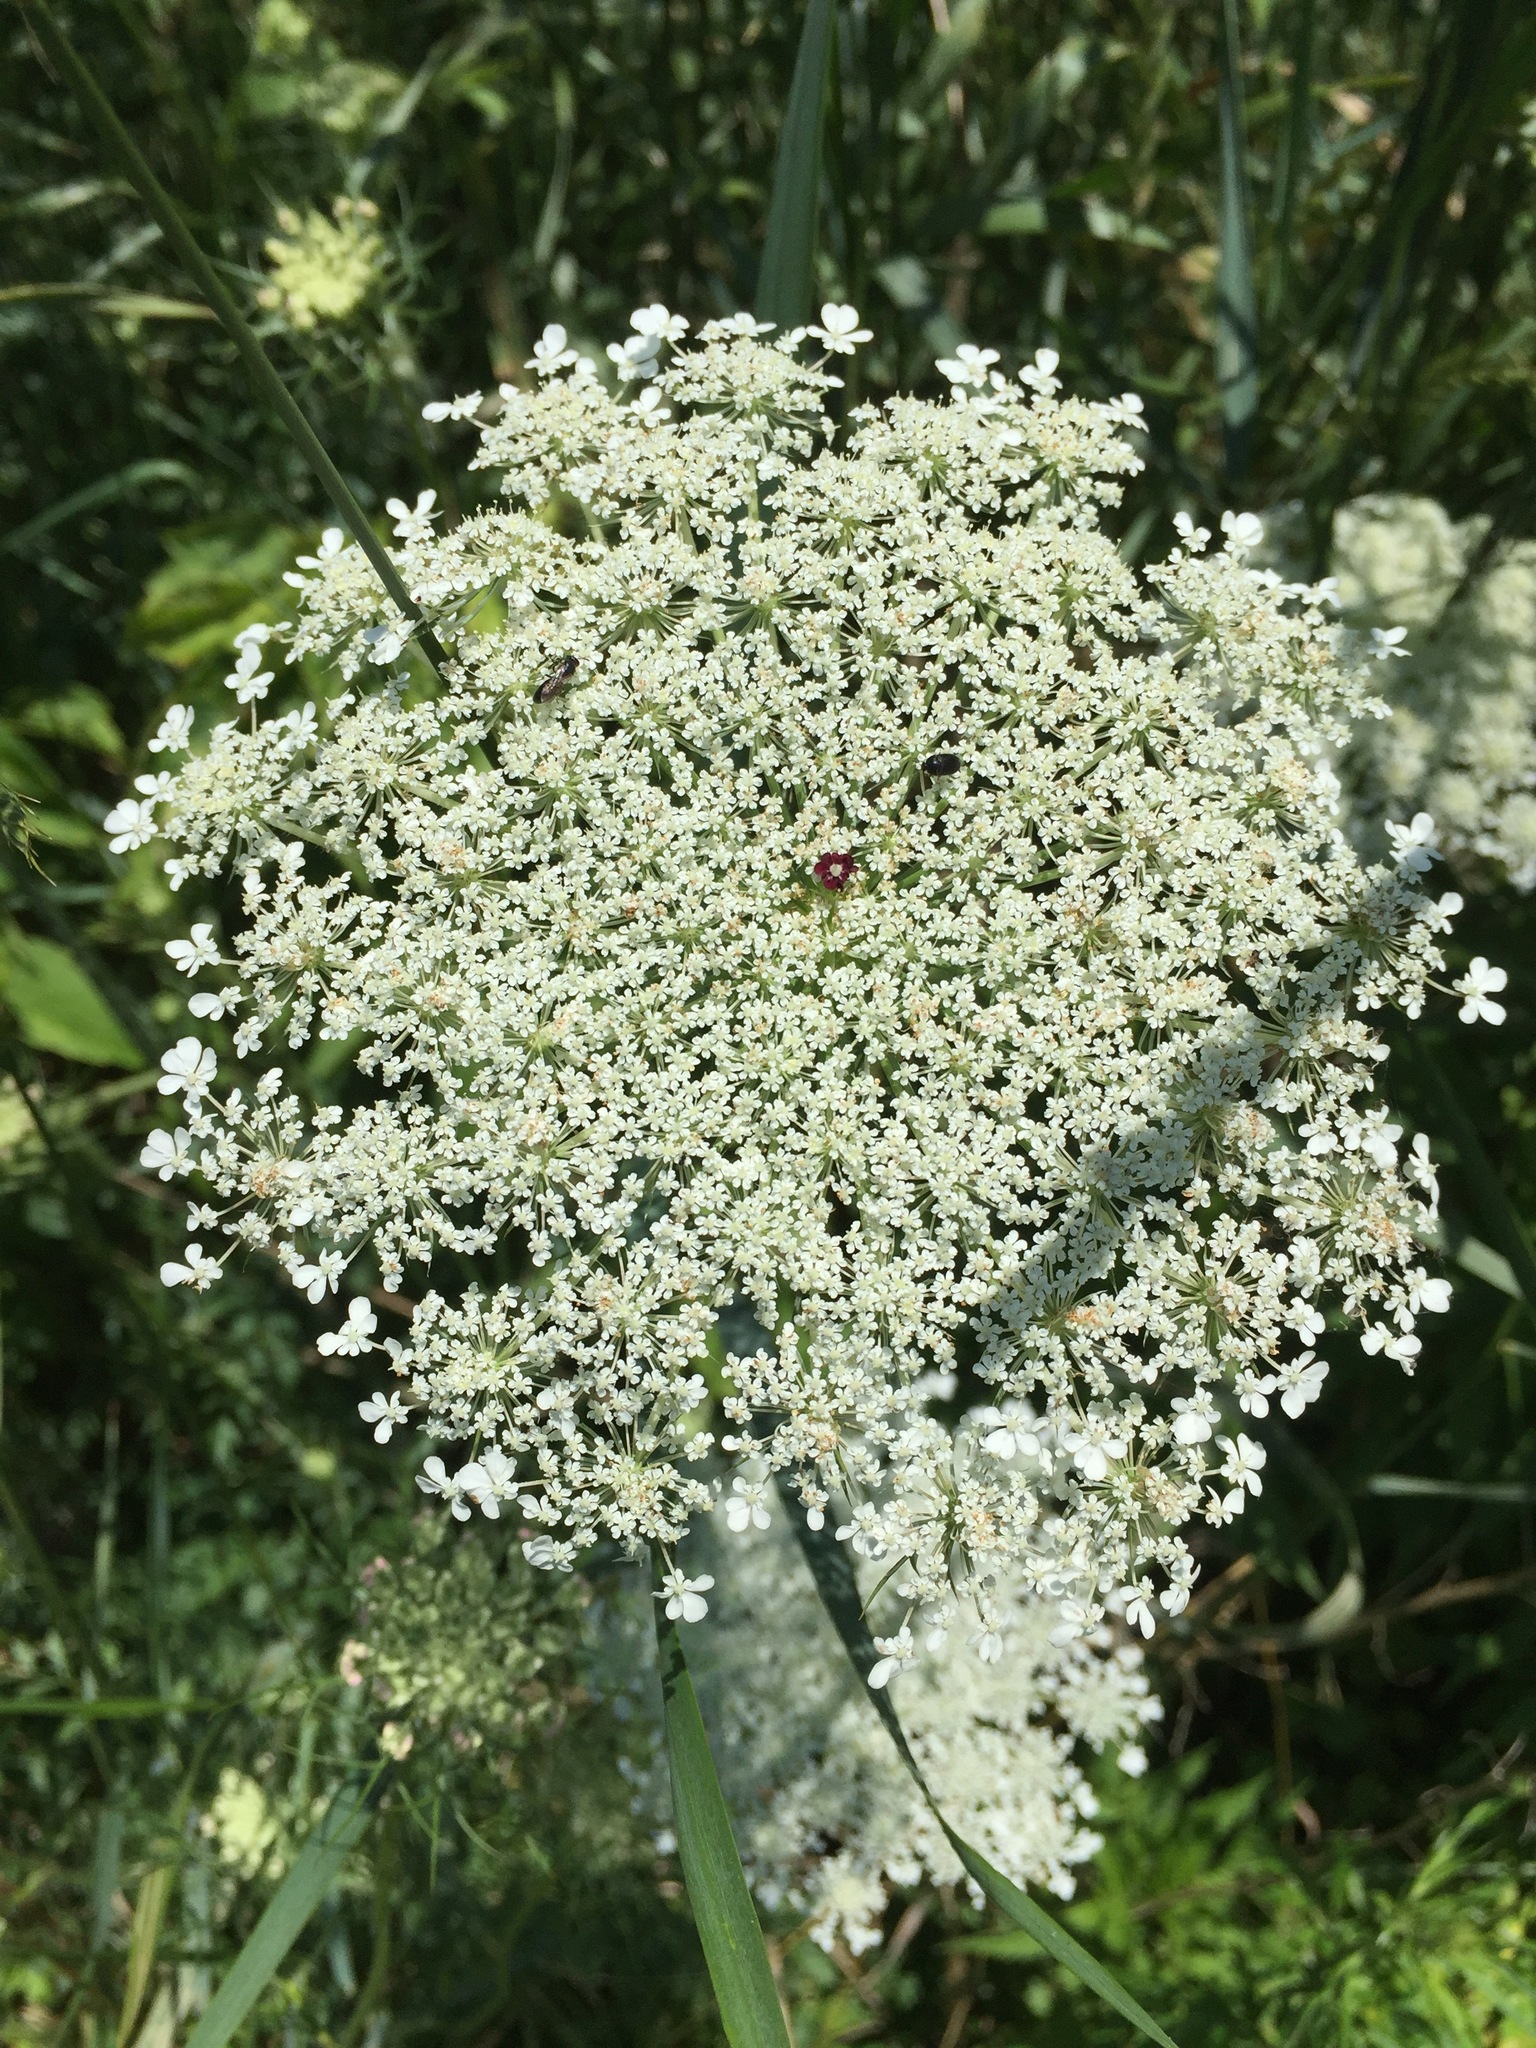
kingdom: Plantae
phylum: Tracheophyta
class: Magnoliopsida
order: Apiales
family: Apiaceae
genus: Daucus
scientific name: Daucus carota
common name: Wild carrot
